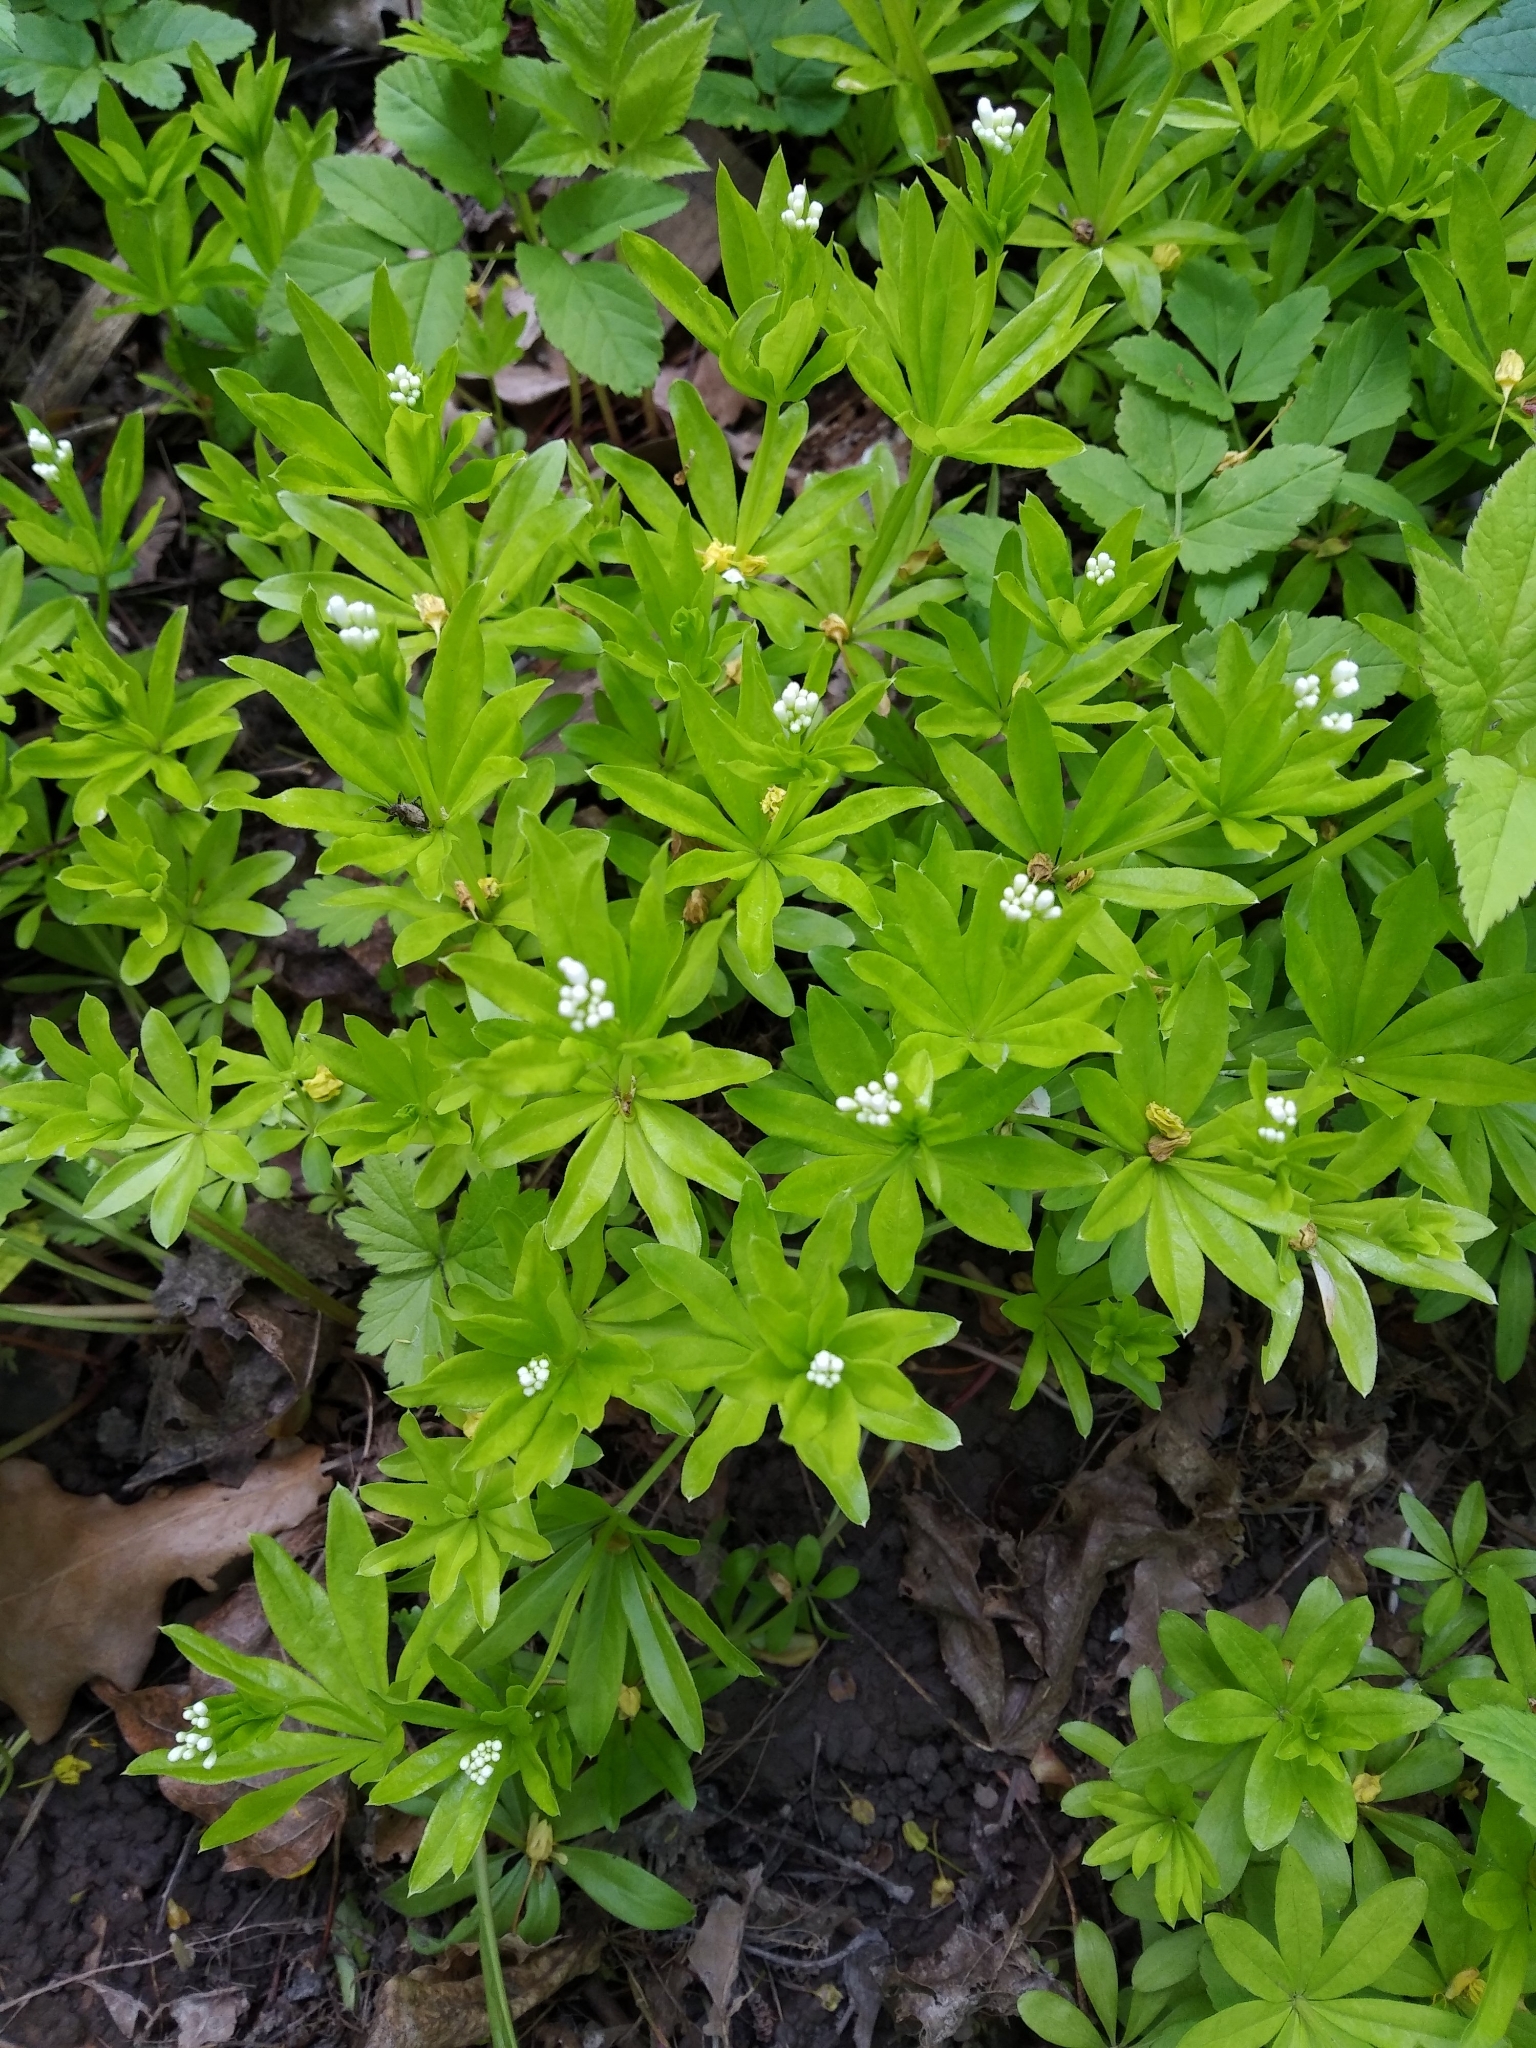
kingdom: Plantae
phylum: Tracheophyta
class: Magnoliopsida
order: Gentianales
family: Rubiaceae
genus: Galium
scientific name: Galium odoratum
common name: Sweet woodruff
